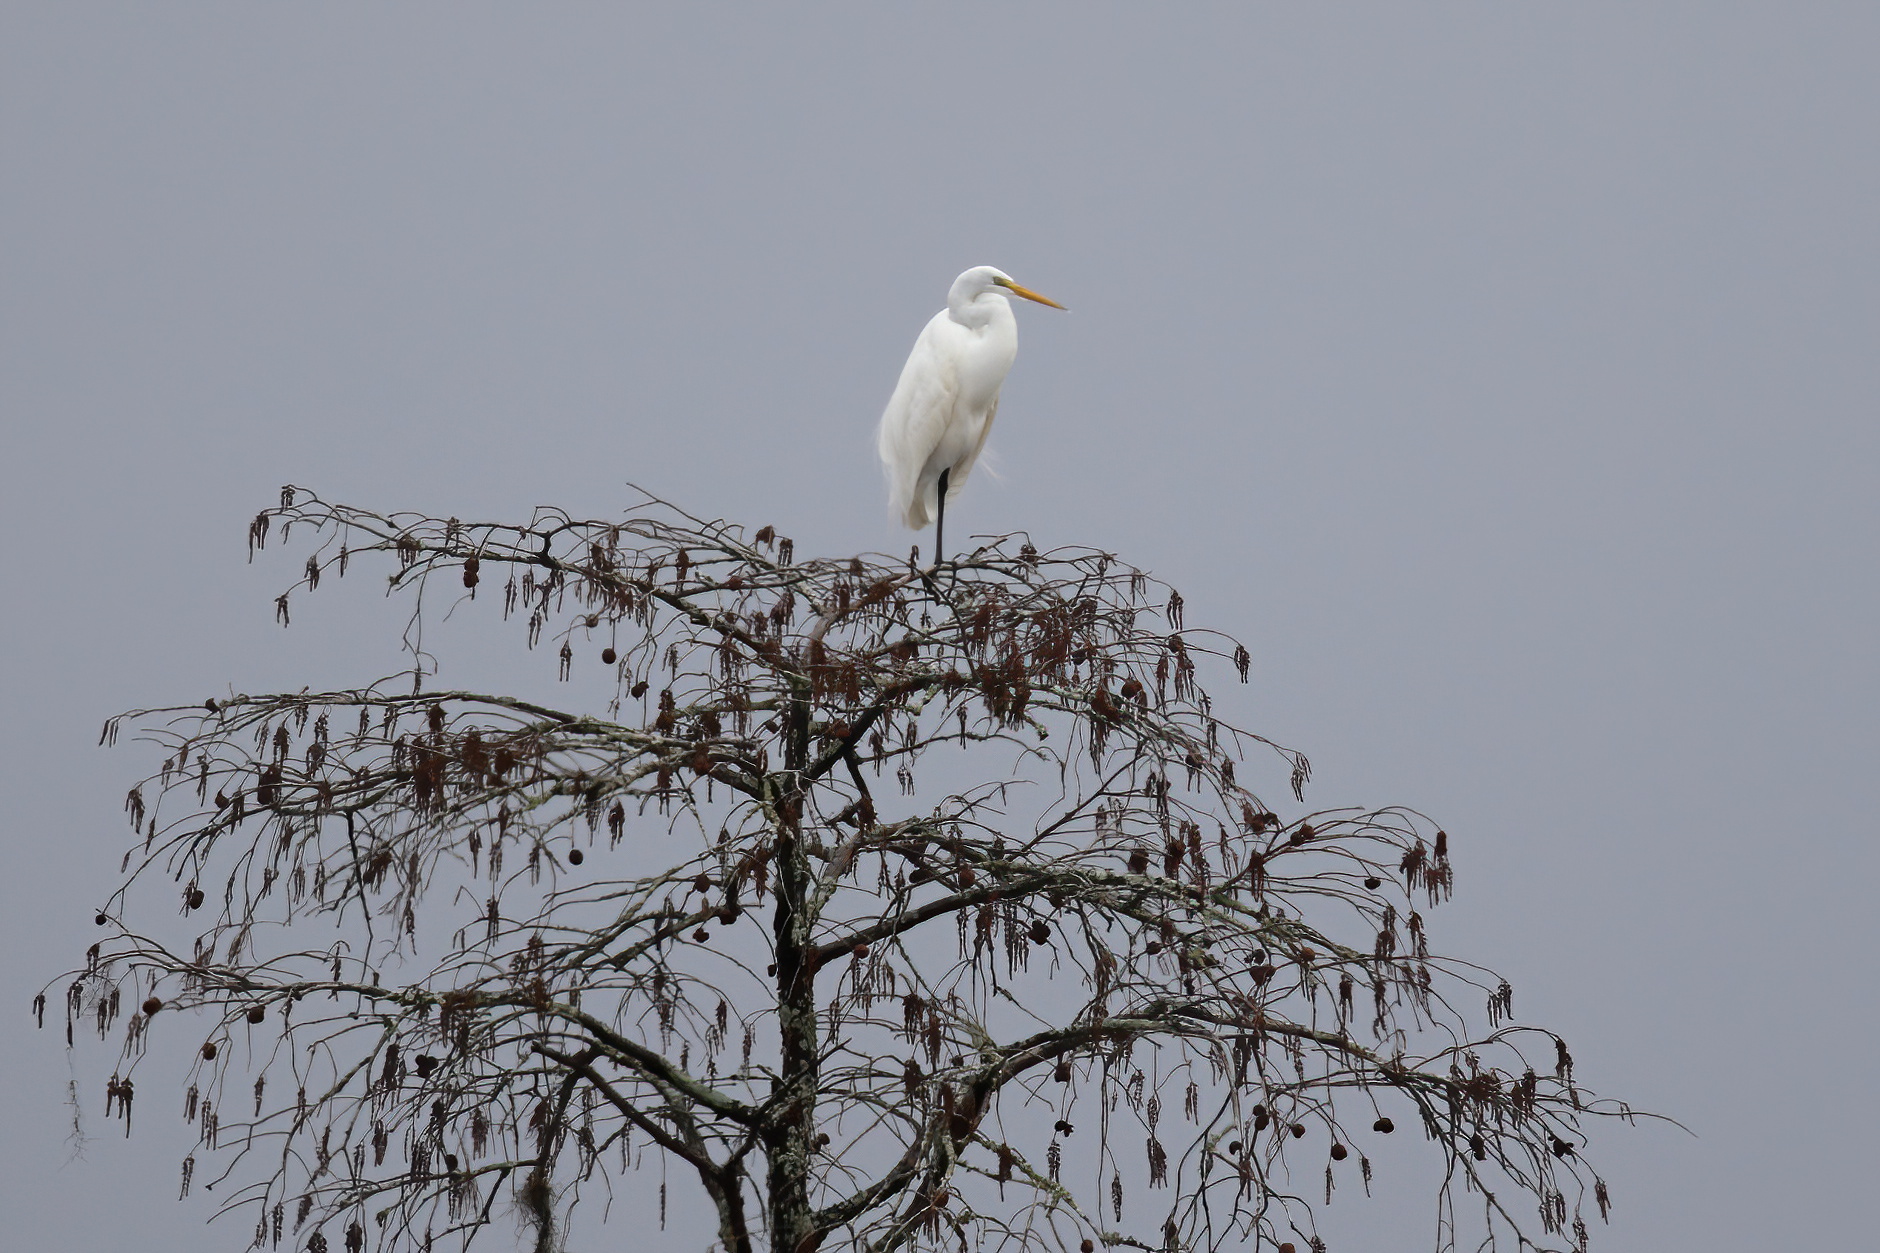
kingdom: Animalia
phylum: Chordata
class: Aves
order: Pelecaniformes
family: Ardeidae
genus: Ardea
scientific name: Ardea alba
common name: Great egret
